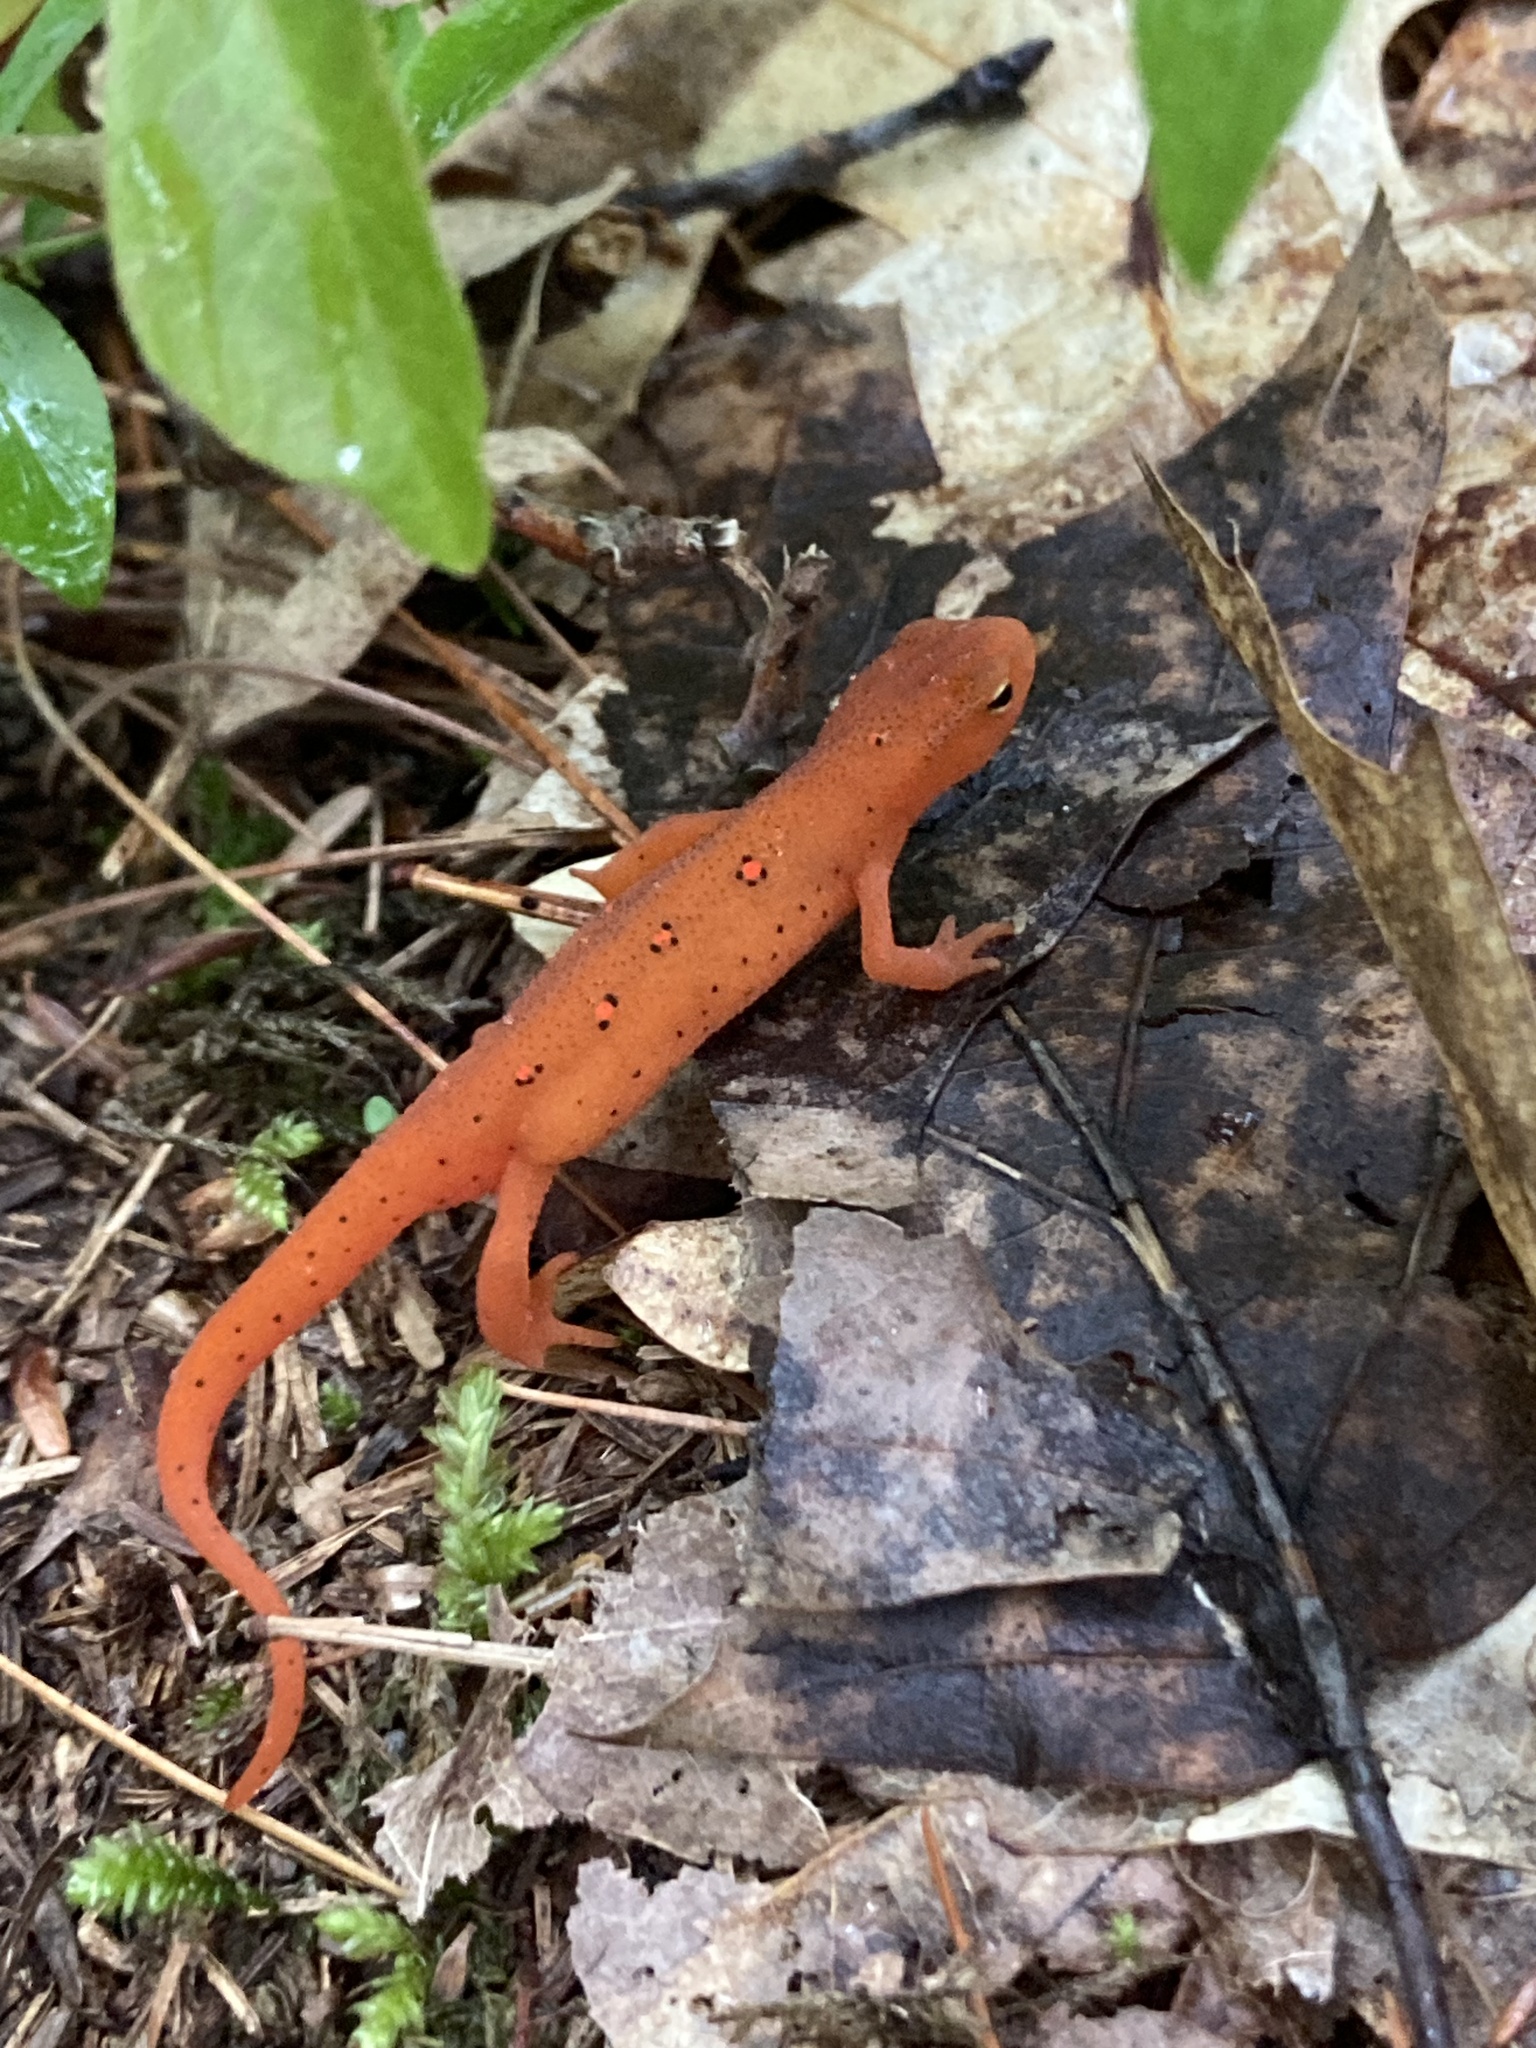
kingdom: Animalia
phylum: Chordata
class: Amphibia
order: Caudata
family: Salamandridae
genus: Notophthalmus
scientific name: Notophthalmus viridescens
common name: Eastern newt
